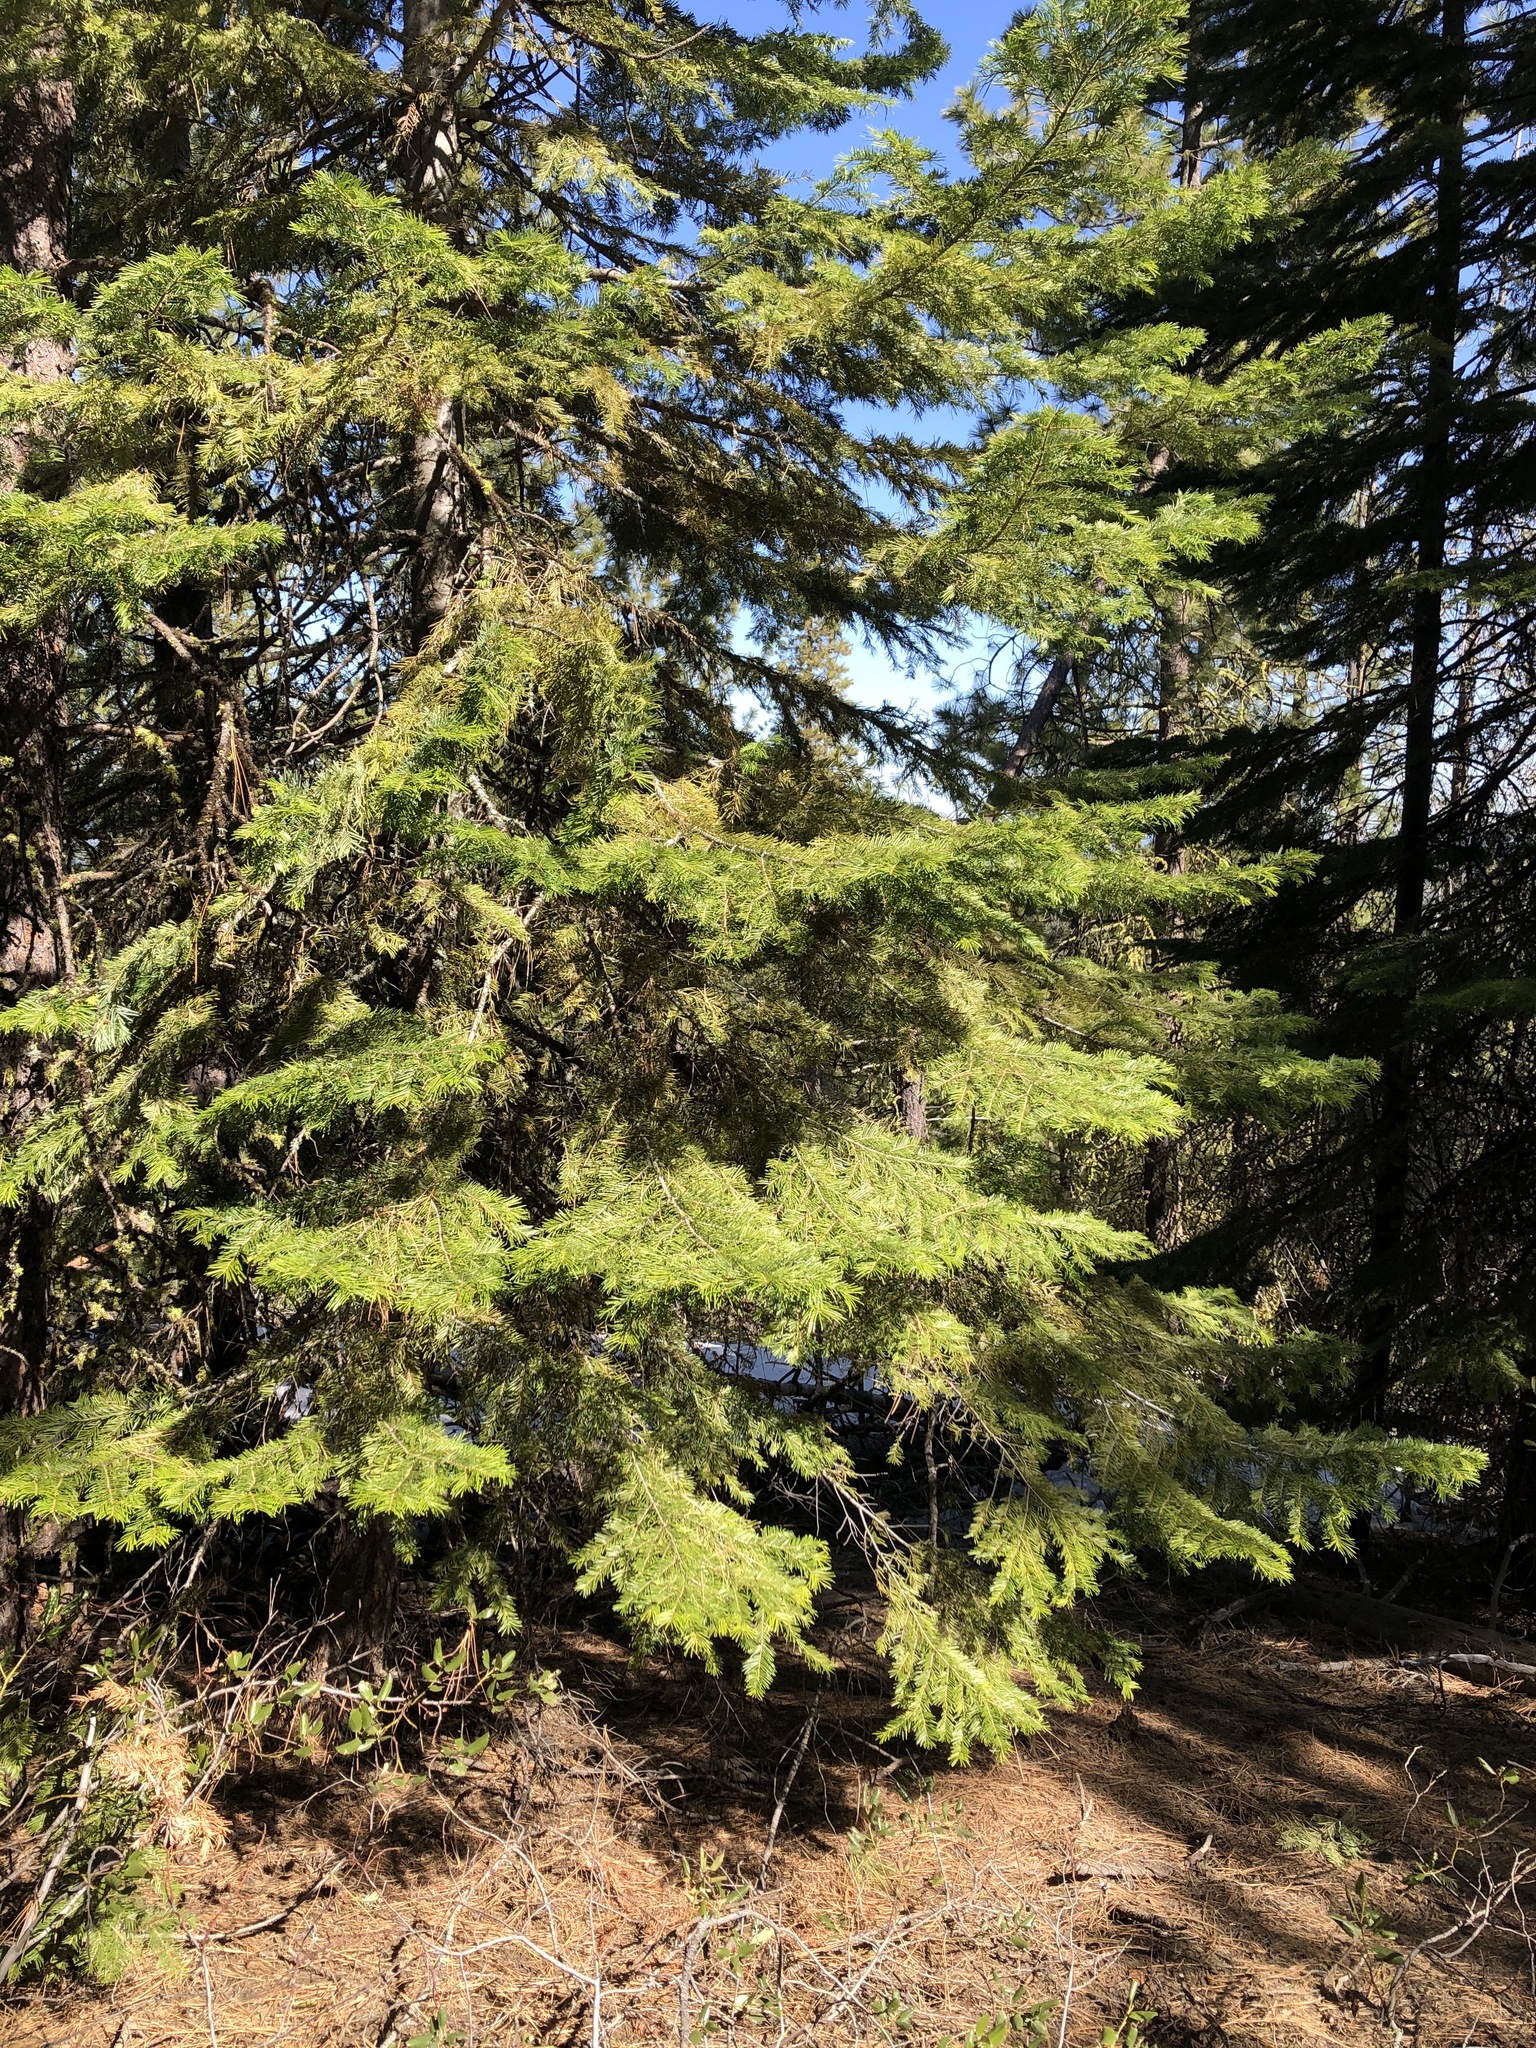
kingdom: Plantae
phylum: Tracheophyta
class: Pinopsida
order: Pinales
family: Pinaceae
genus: Abies
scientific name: Abies grandis
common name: Giant fir
